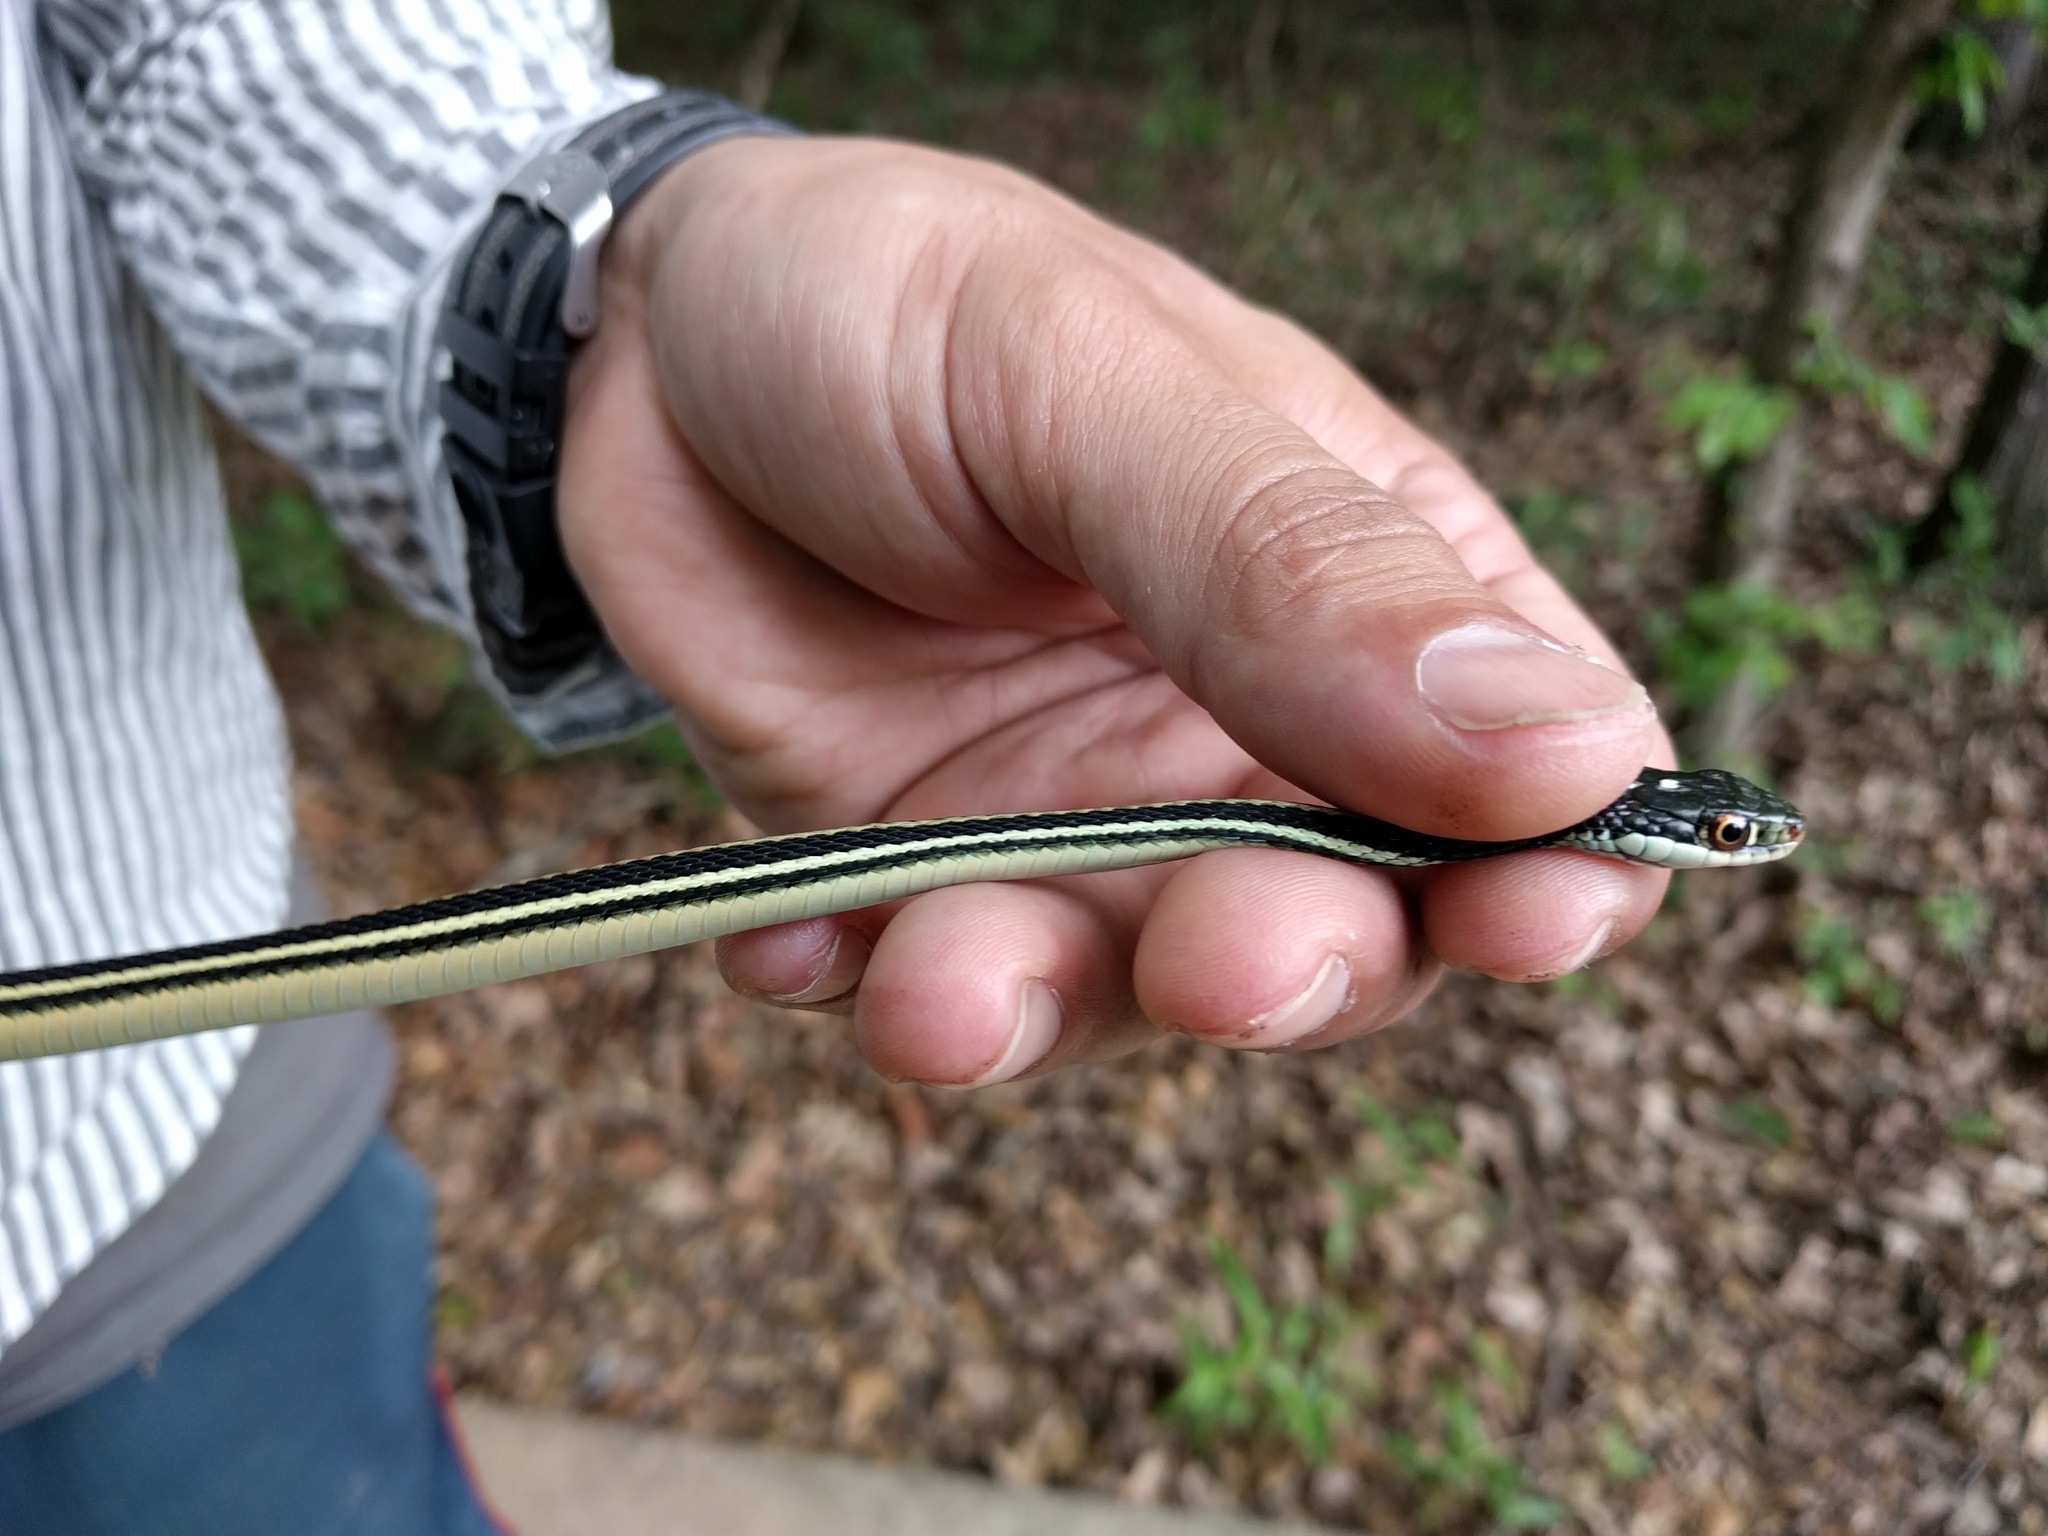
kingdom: Animalia
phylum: Chordata
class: Squamata
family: Colubridae
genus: Thamnophis
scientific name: Thamnophis proximus
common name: Western ribbon snake
